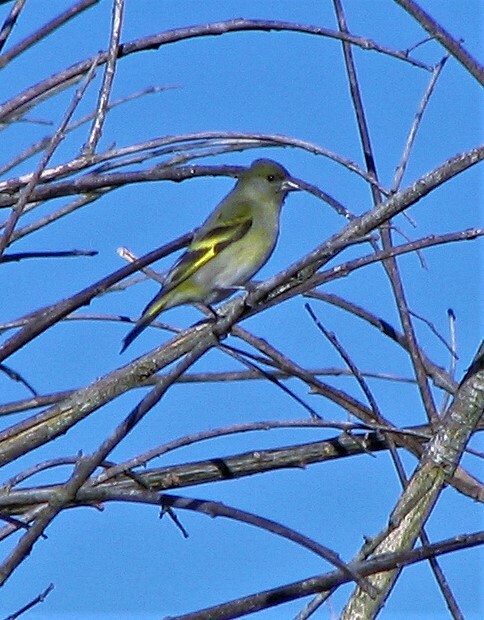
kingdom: Animalia
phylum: Chordata
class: Aves
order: Passeriformes
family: Fringillidae
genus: Spinus
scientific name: Spinus magellanicus
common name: Hooded siskin
